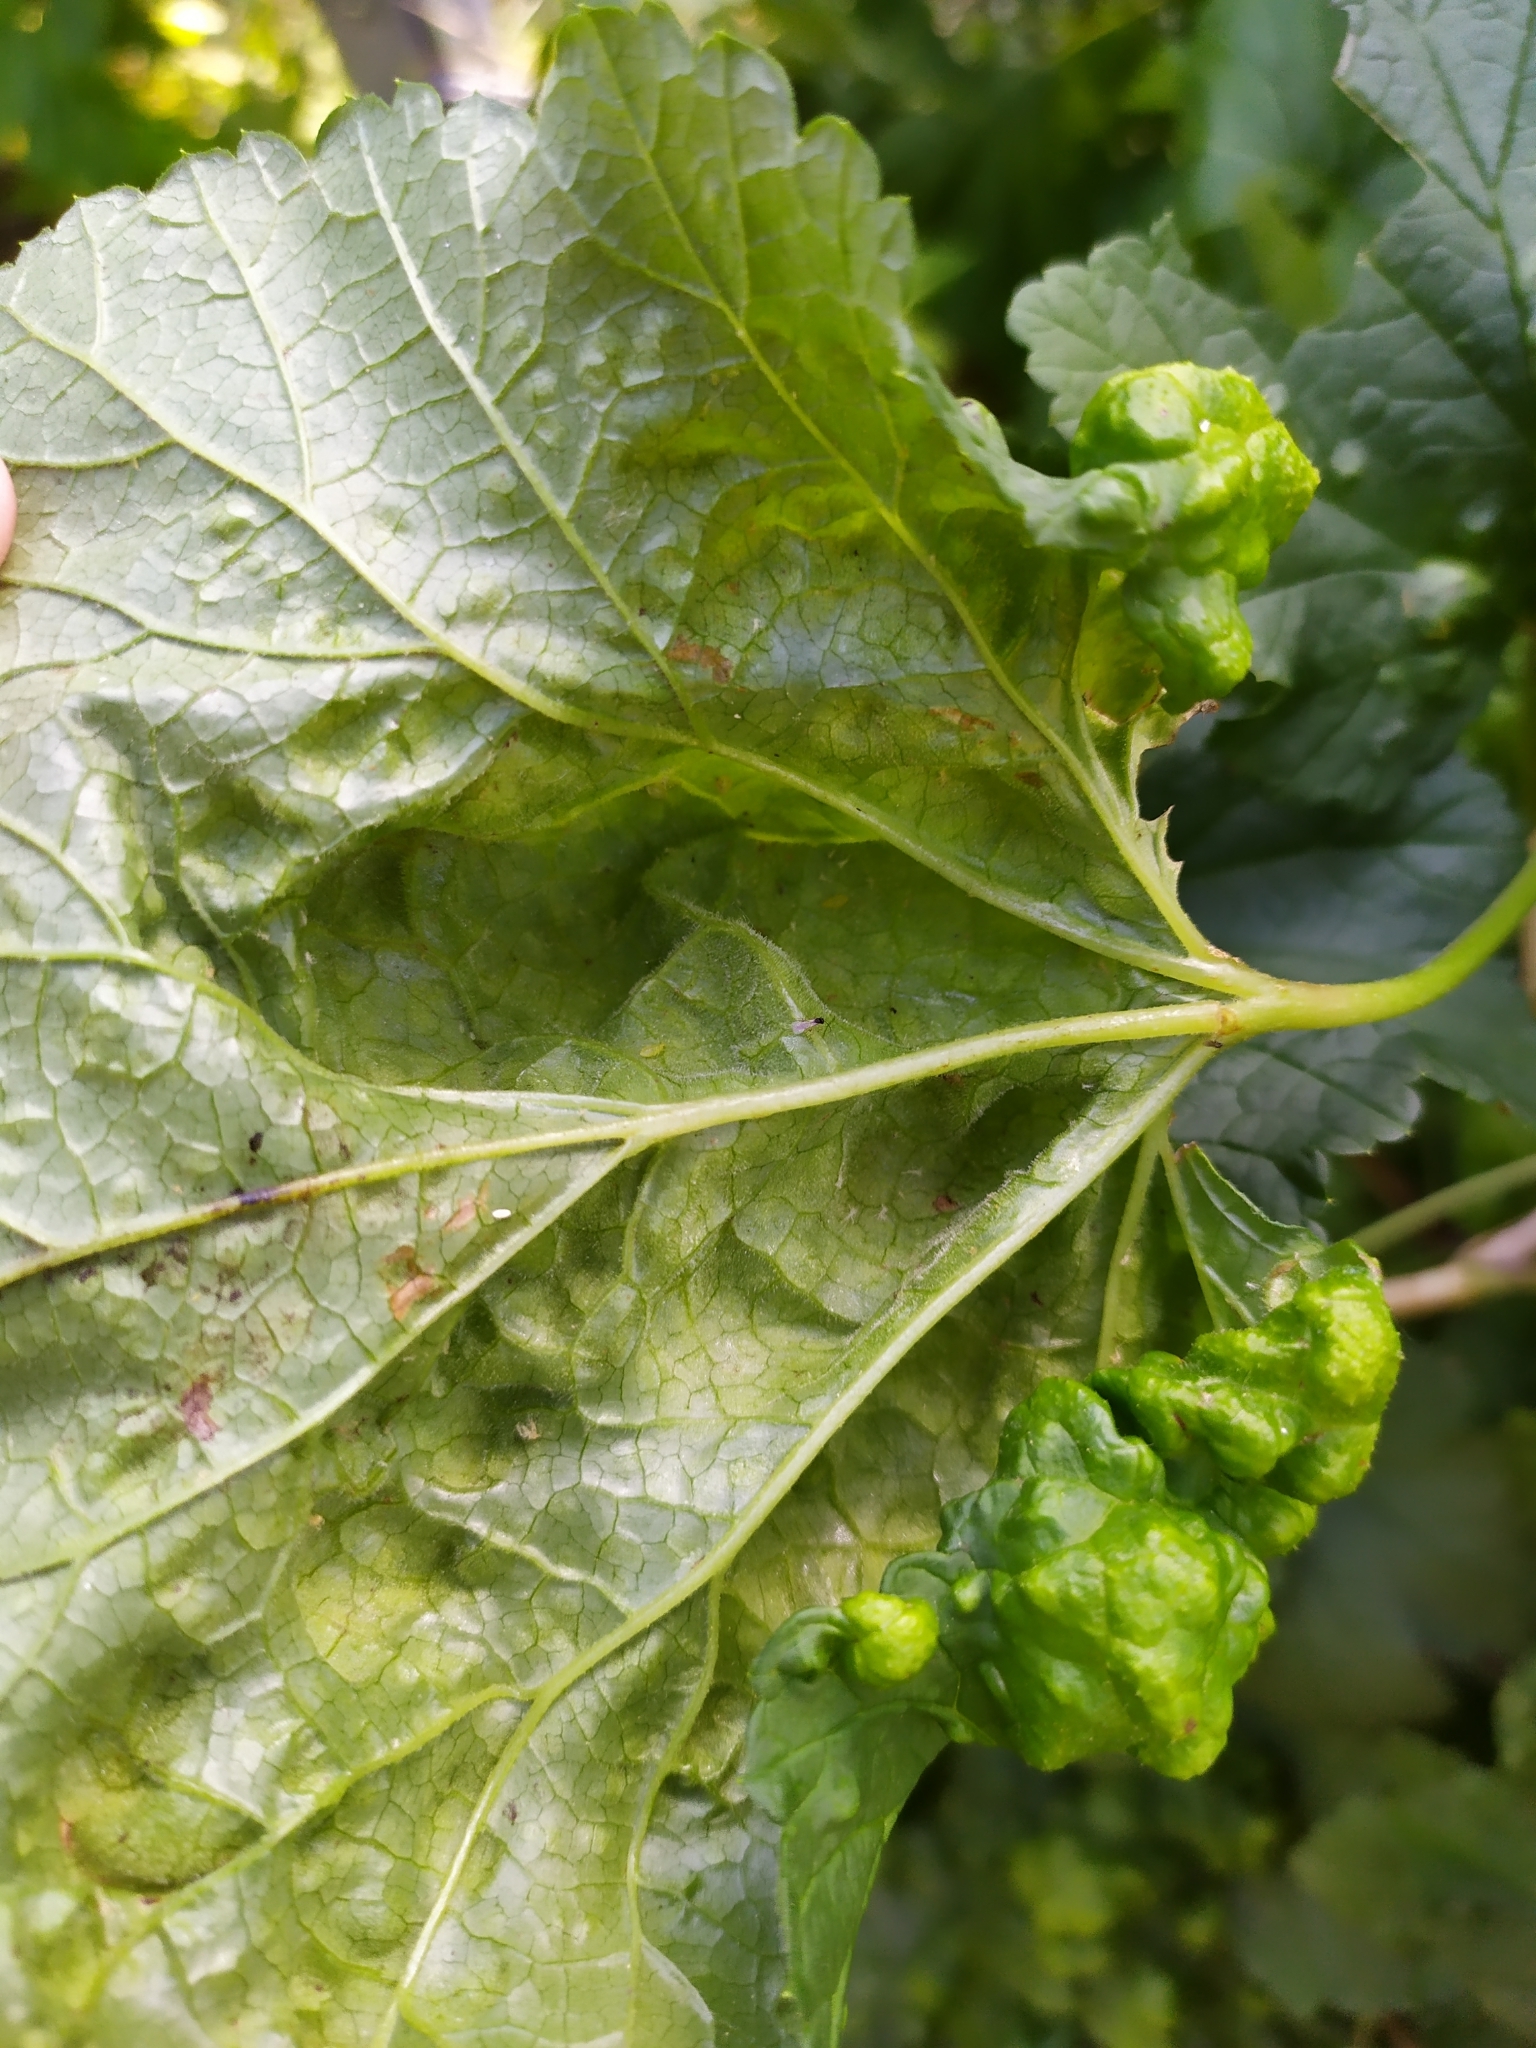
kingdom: Animalia
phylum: Arthropoda
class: Insecta
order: Hemiptera
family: Aphididae
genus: Cryptomyzus
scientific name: Cryptomyzus ribis
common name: Currant aphid
